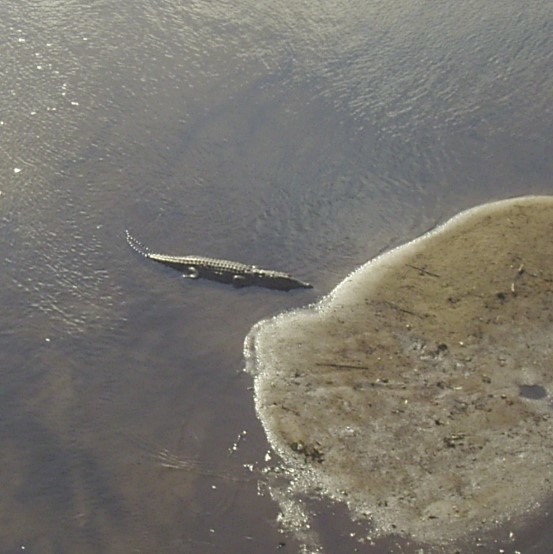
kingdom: Animalia
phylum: Chordata
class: Crocodylia
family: Crocodylidae
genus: Crocodylus
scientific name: Crocodylus niloticus
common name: Nile crocodile
